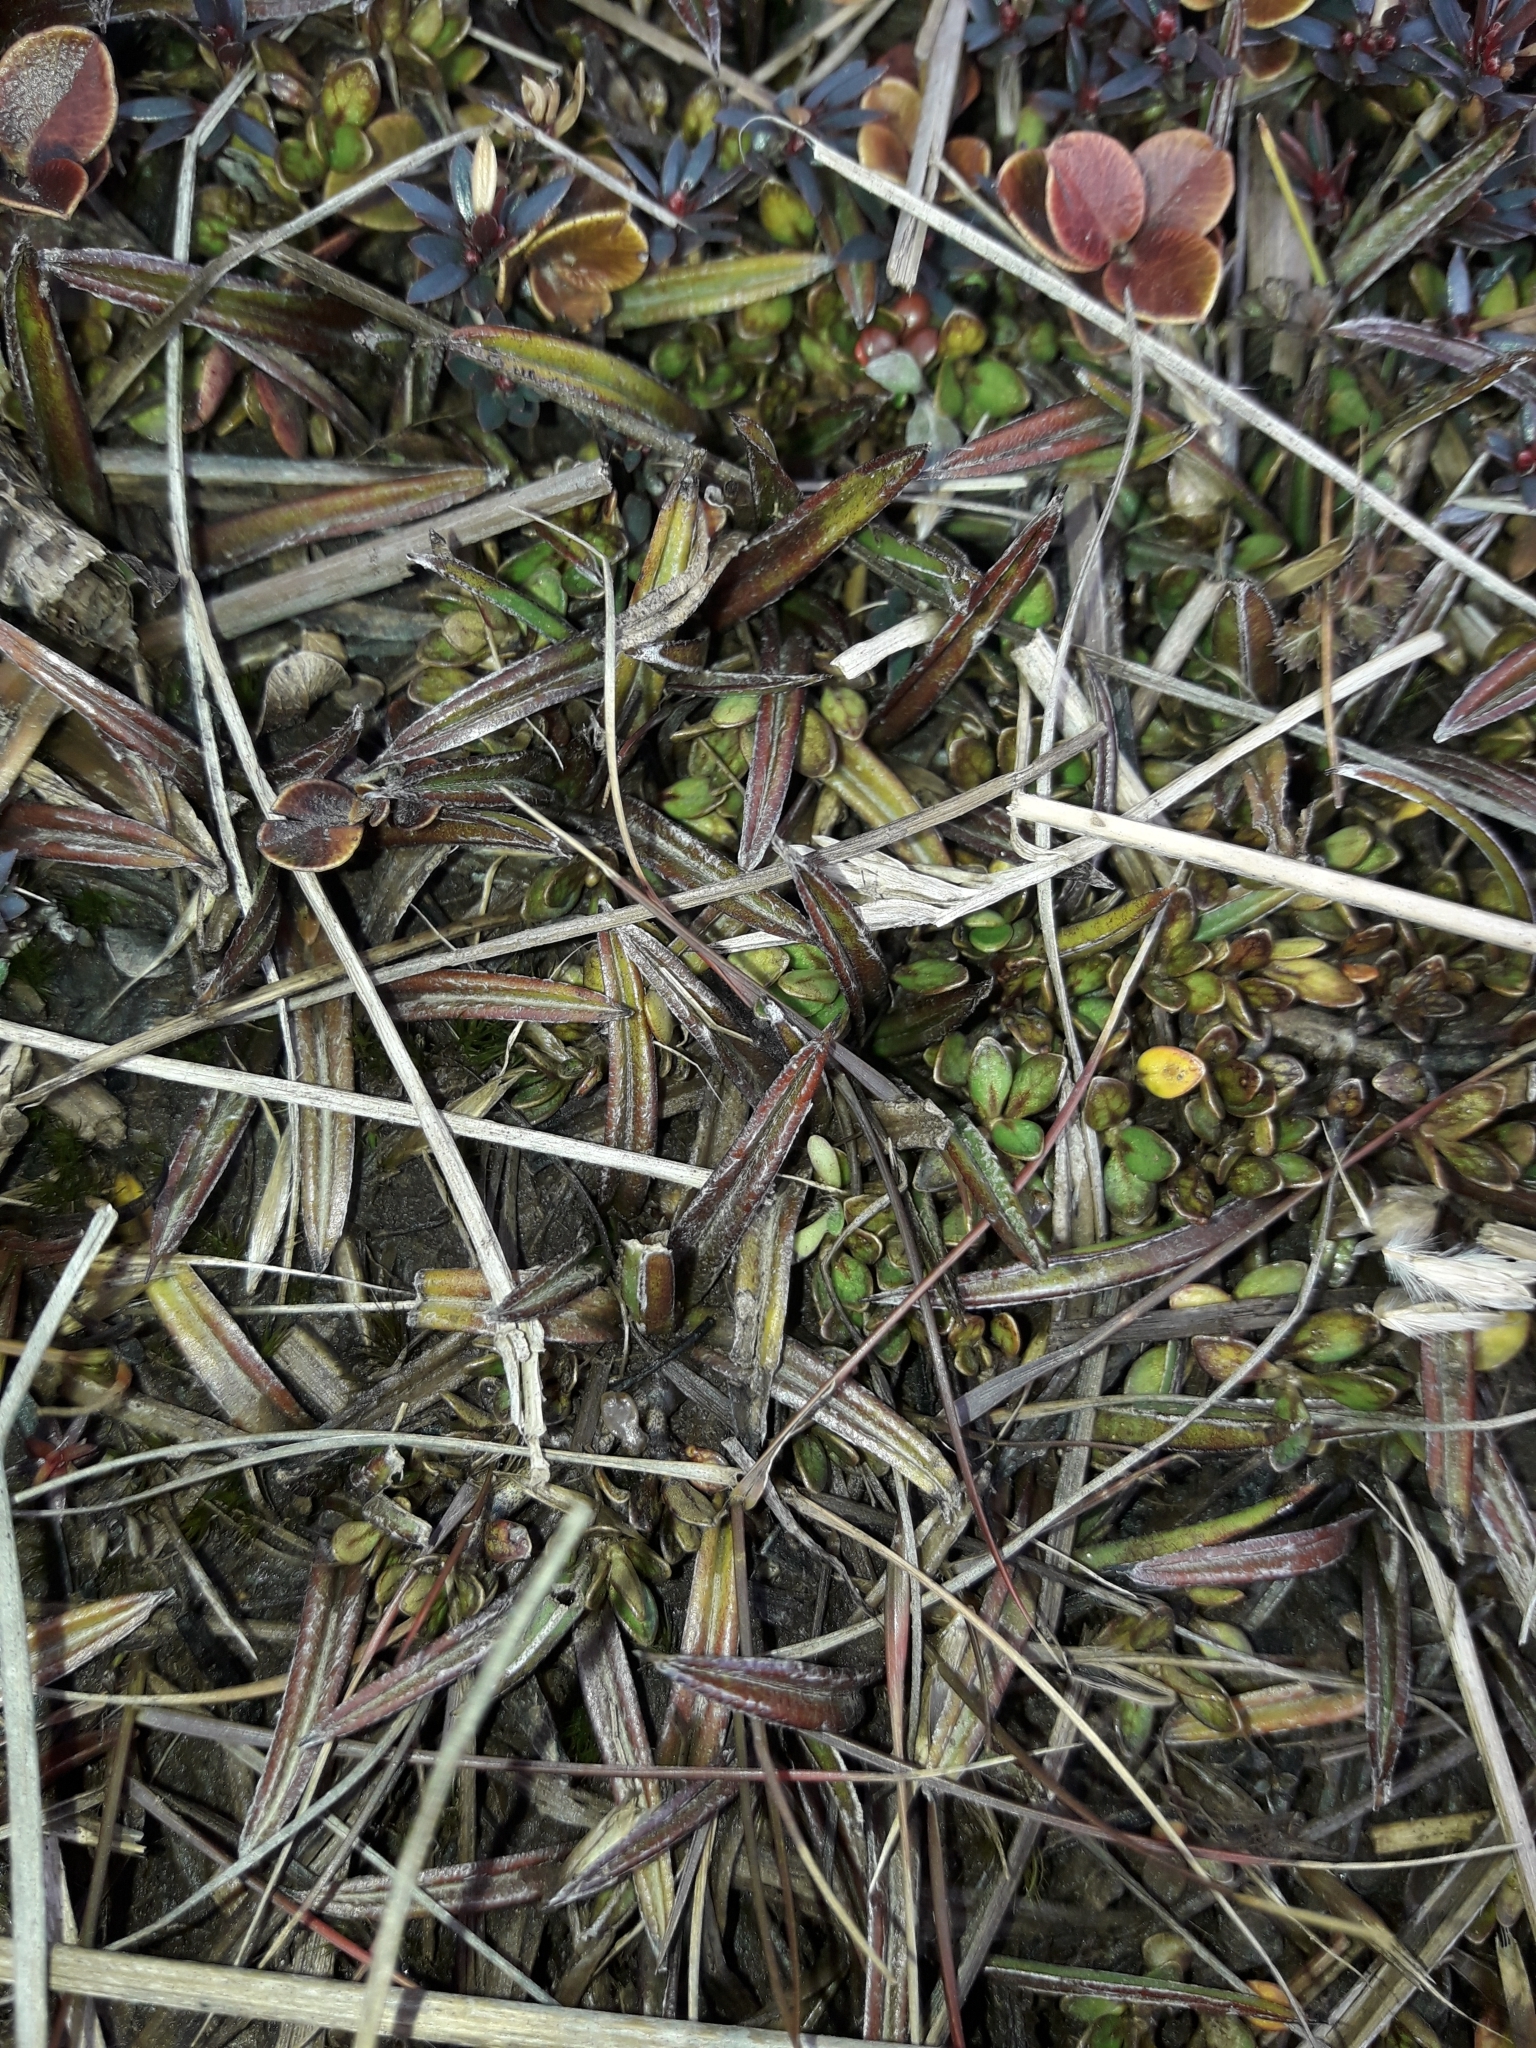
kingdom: Plantae
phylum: Tracheophyta
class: Liliopsida
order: Asparagales
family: Asteliaceae
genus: Astelia
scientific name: Astelia linearis
